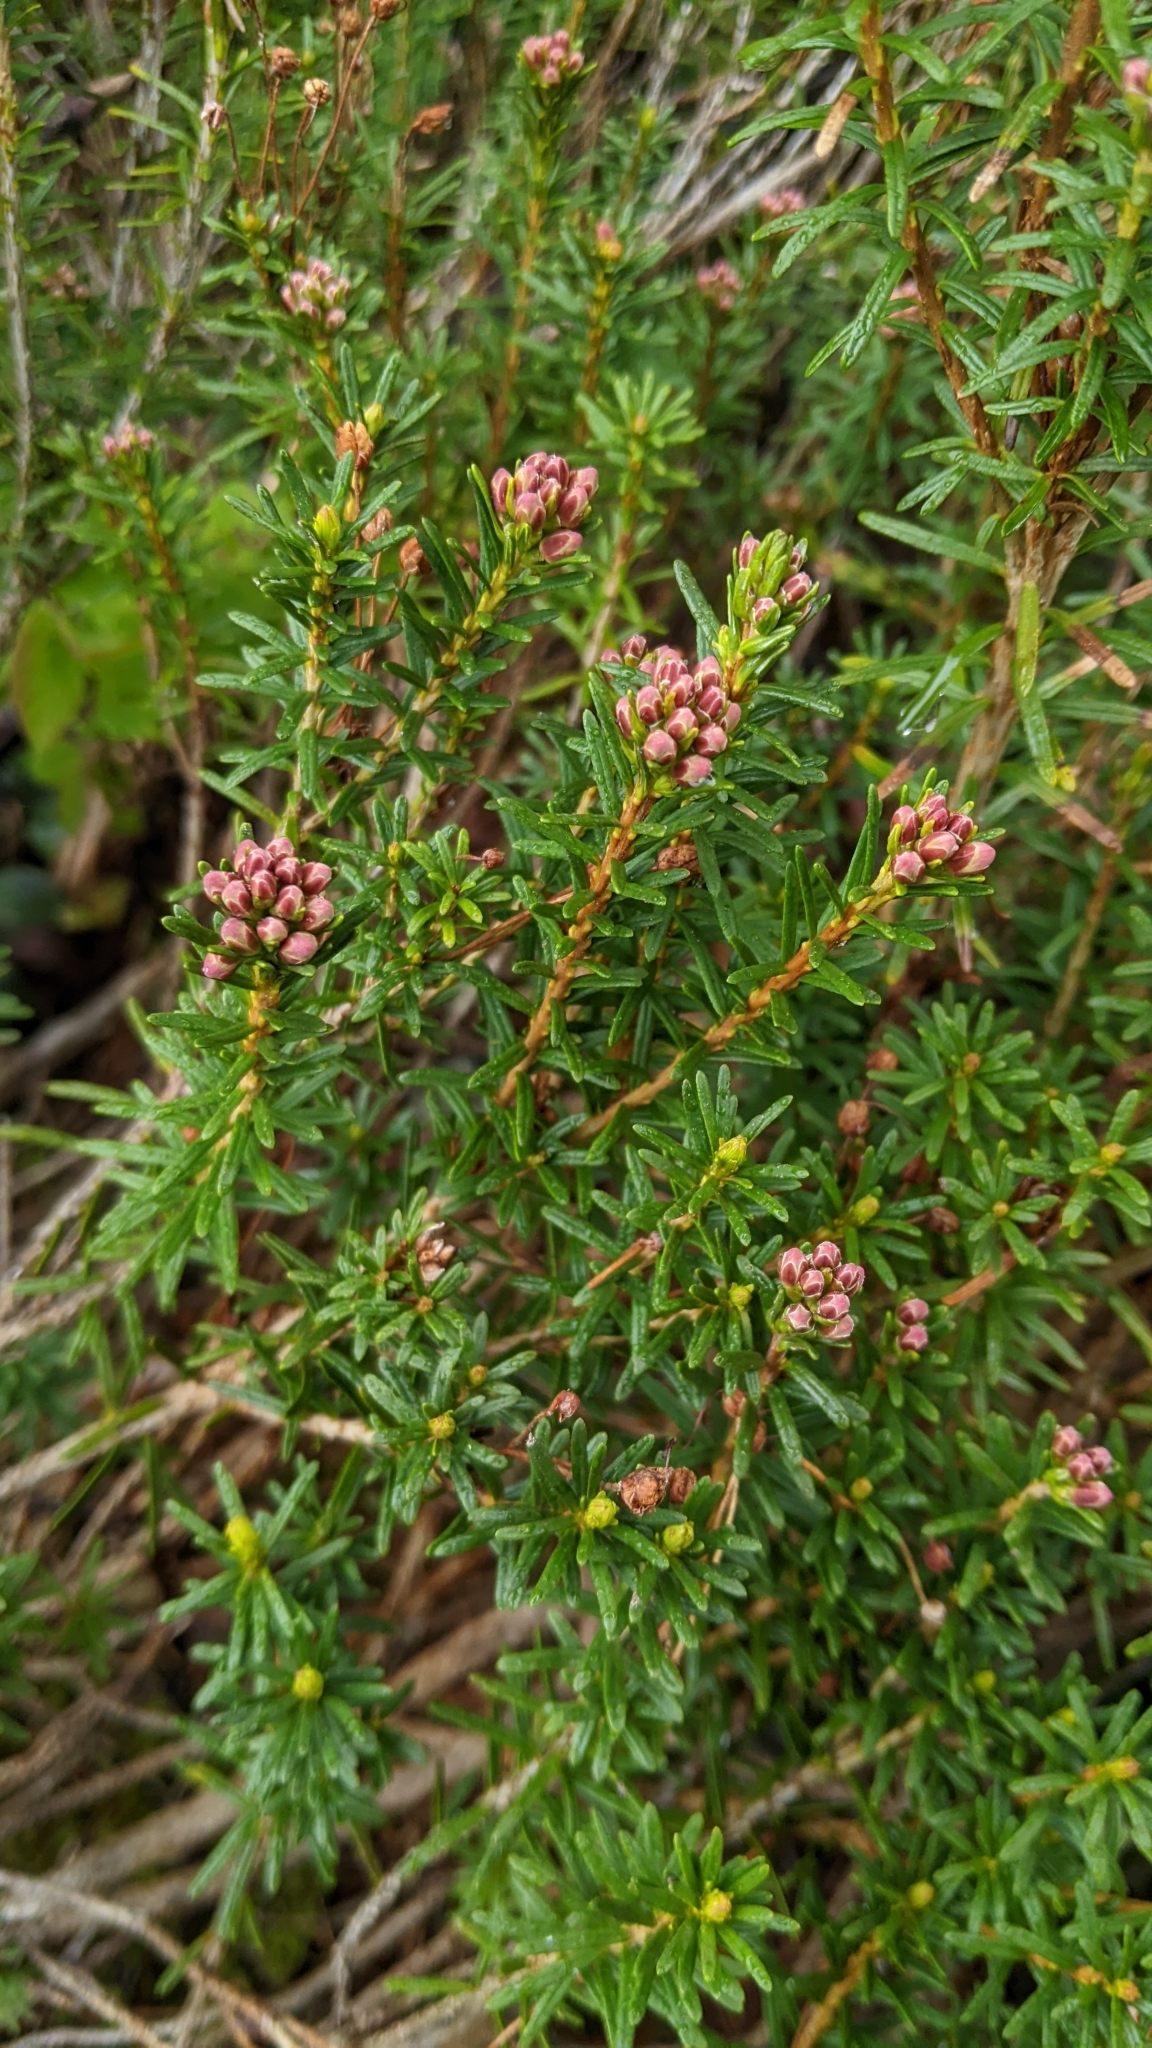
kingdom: Plantae
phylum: Tracheophyta
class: Magnoliopsida
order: Ericales
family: Ericaceae
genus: Phyllodoce
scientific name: Phyllodoce empetriformis
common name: Pink mountain heather
